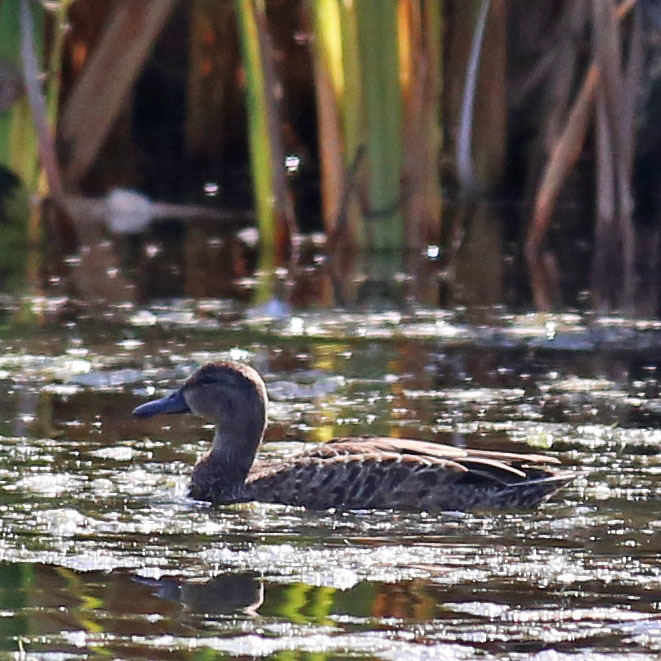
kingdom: Animalia
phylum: Chordata
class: Aves
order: Anseriformes
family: Anatidae
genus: Spatula
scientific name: Spatula discors
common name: Blue-winged teal
